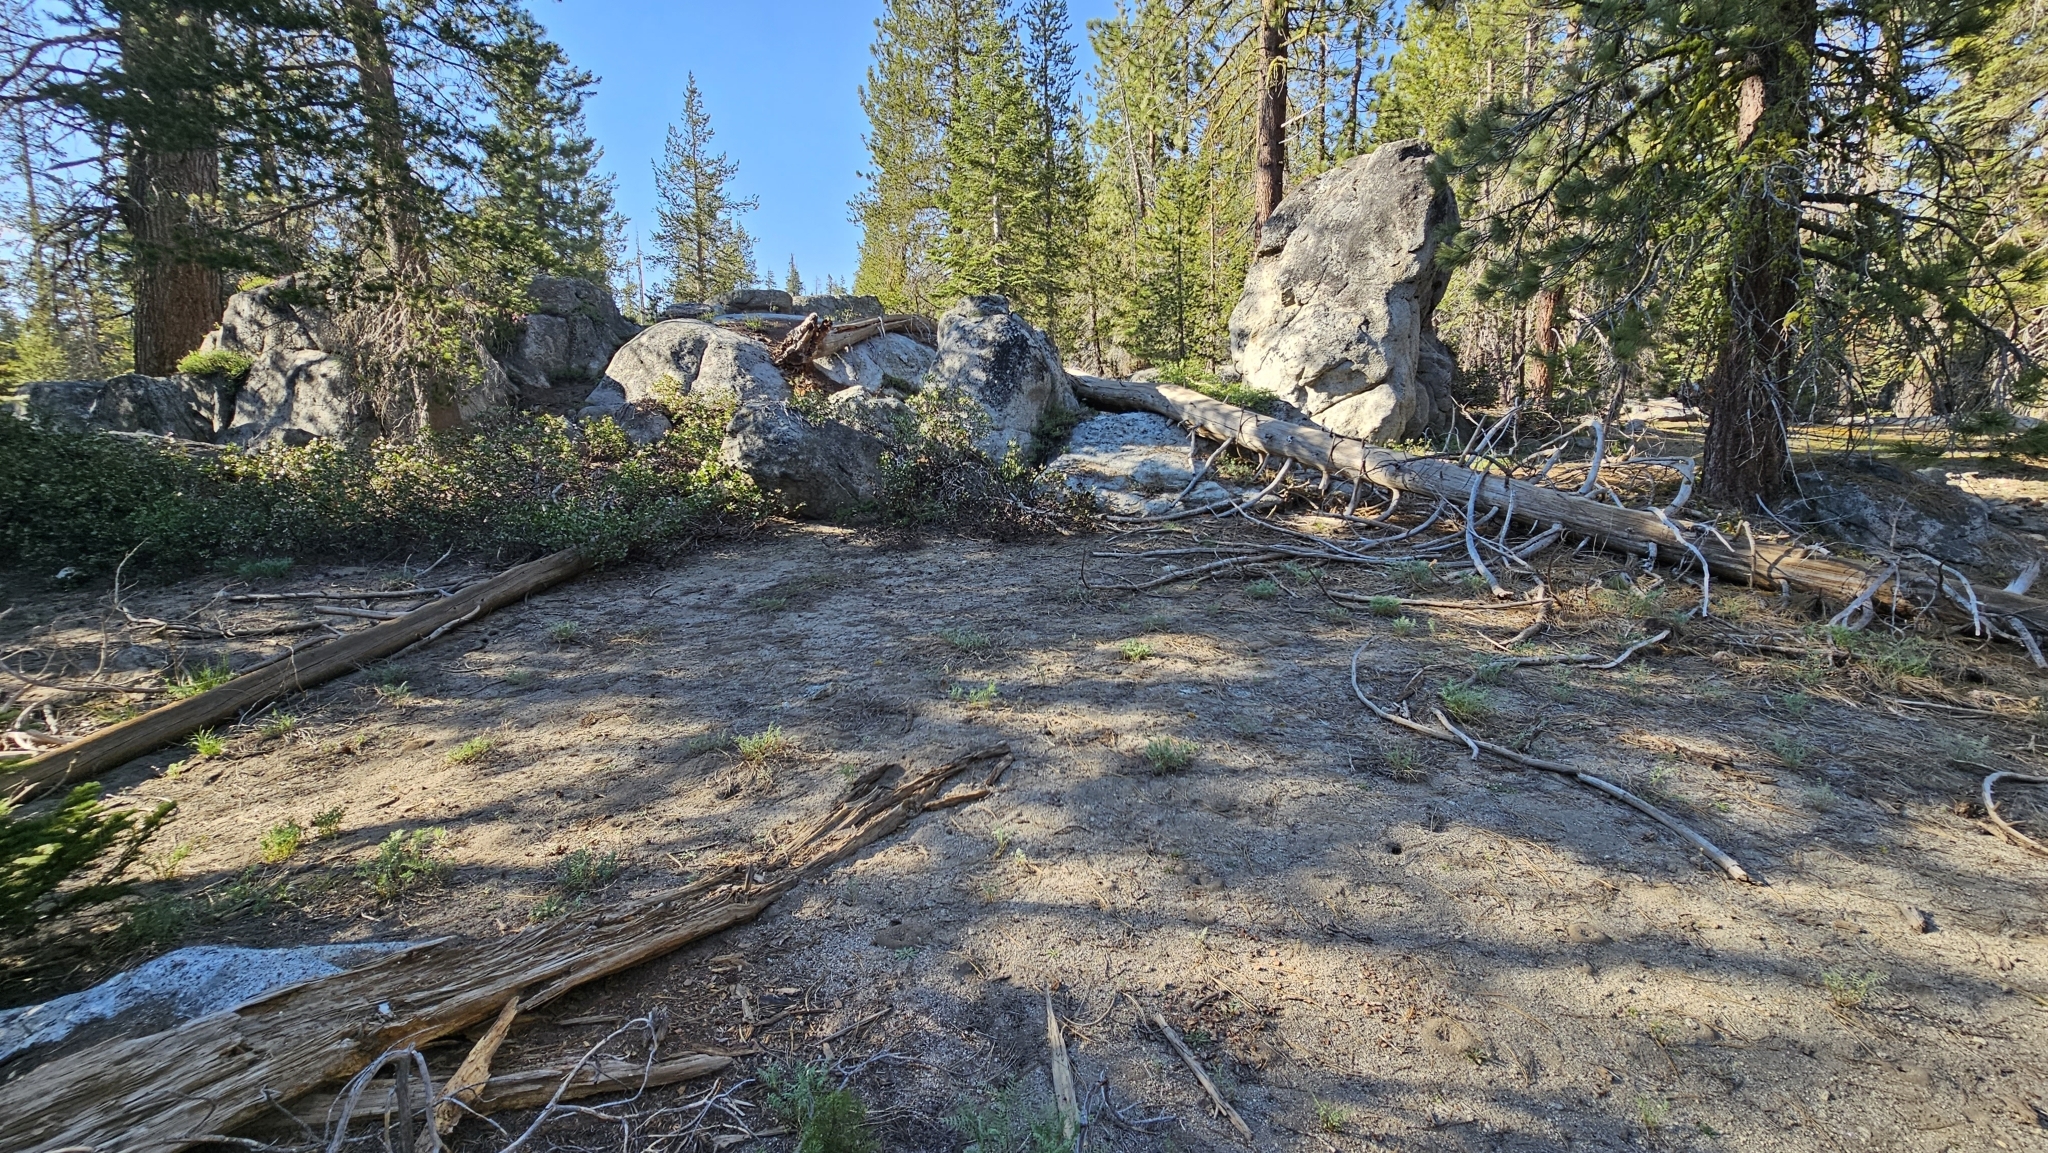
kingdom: Plantae
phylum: Tracheophyta
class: Magnoliopsida
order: Malpighiales
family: Violaceae
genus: Viola
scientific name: Viola pinetorum
